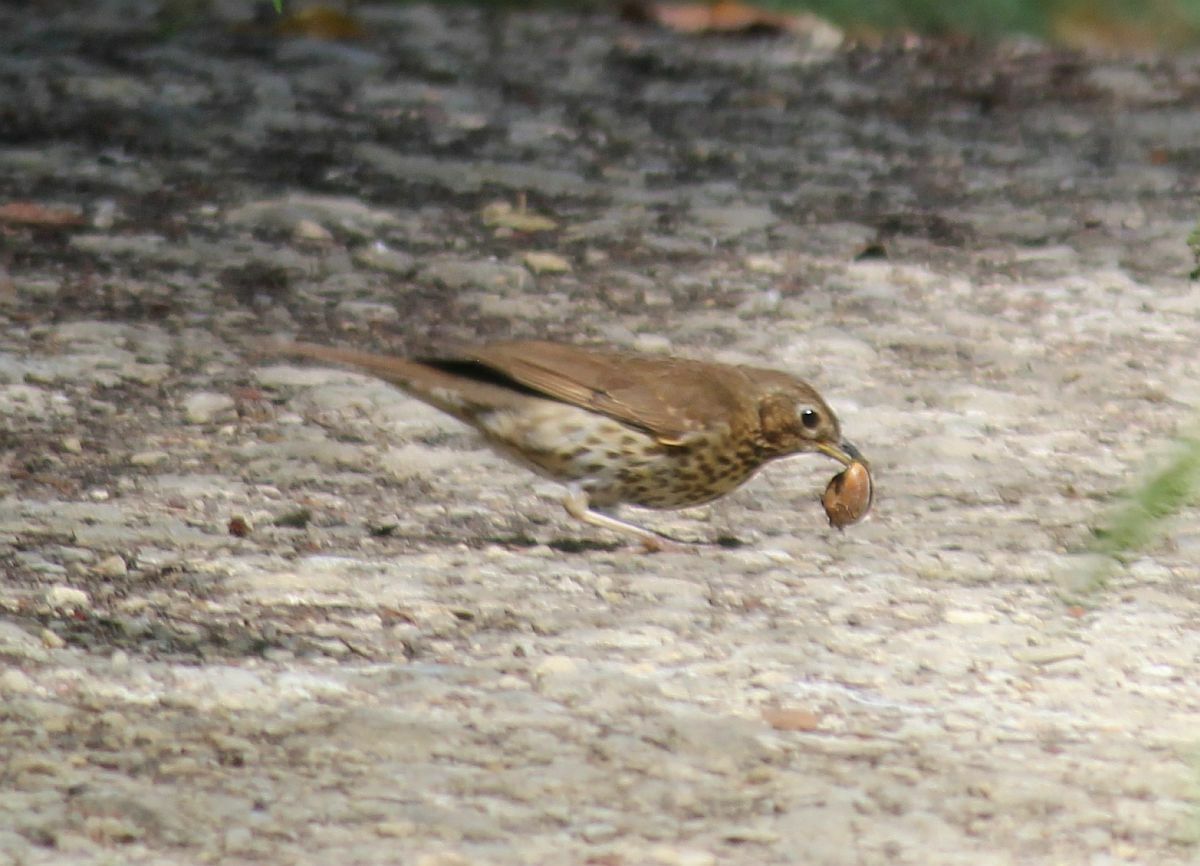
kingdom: Animalia
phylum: Chordata
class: Aves
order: Passeriformes
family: Turdidae
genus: Turdus
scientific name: Turdus philomelos
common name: Song thrush
